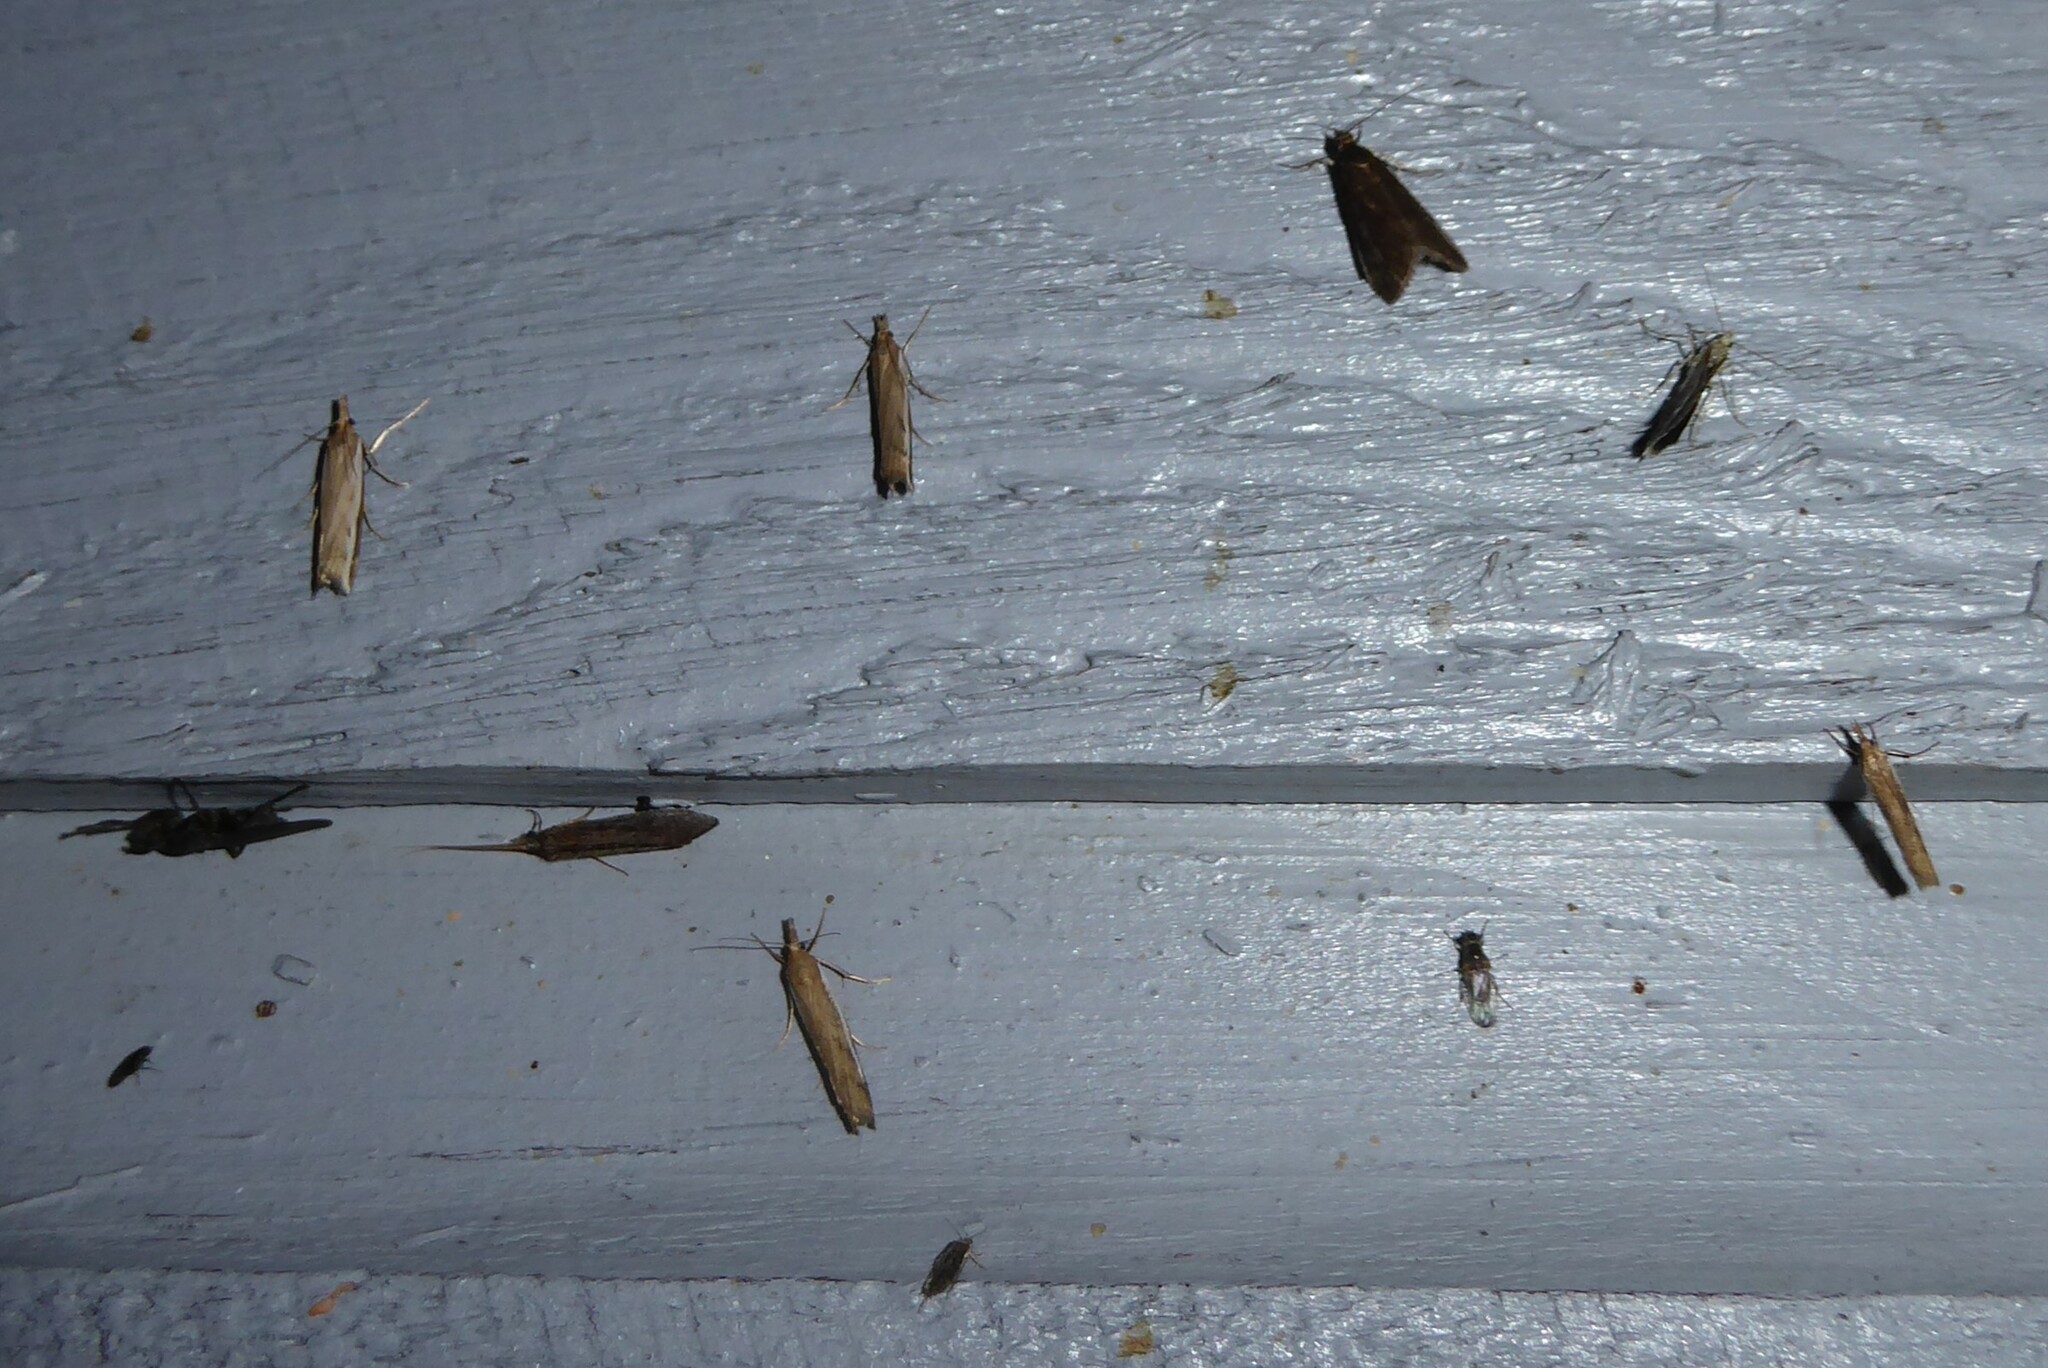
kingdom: Animalia
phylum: Arthropoda
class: Insecta
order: Lepidoptera
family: Crambidae
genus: Achyra
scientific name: Achyra affinitalis
